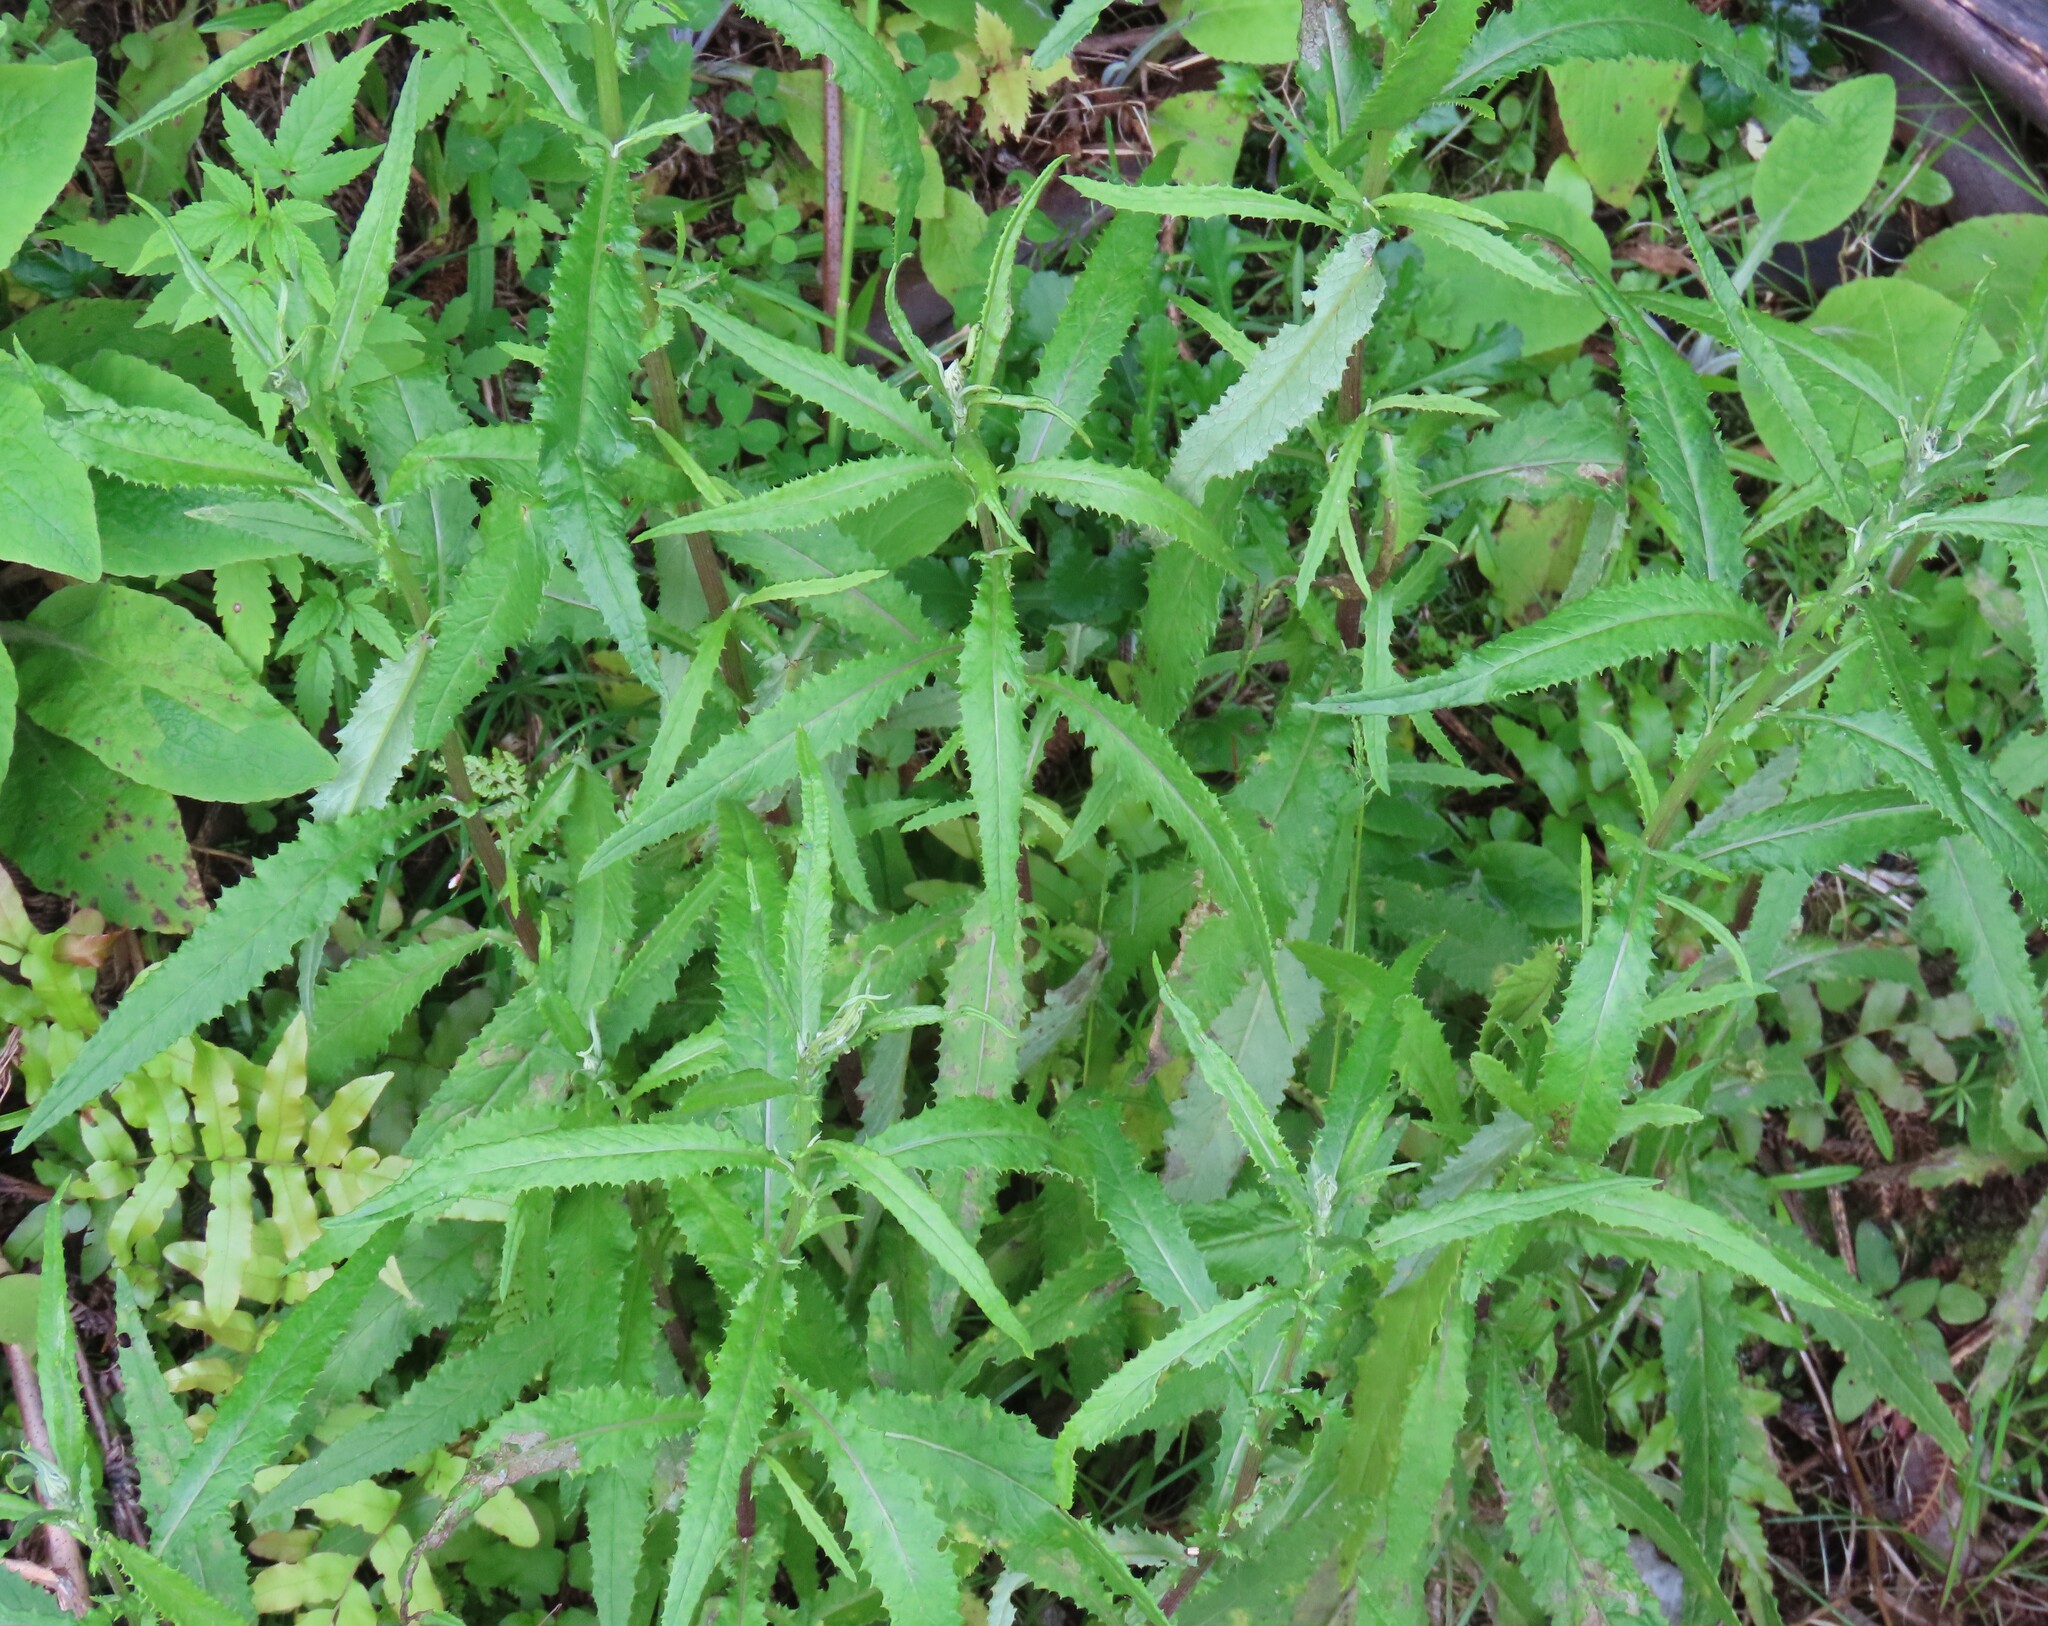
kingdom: Plantae
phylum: Tracheophyta
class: Magnoliopsida
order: Asterales
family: Asteraceae
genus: Senecio
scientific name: Senecio minimus
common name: Toothed fireweed
